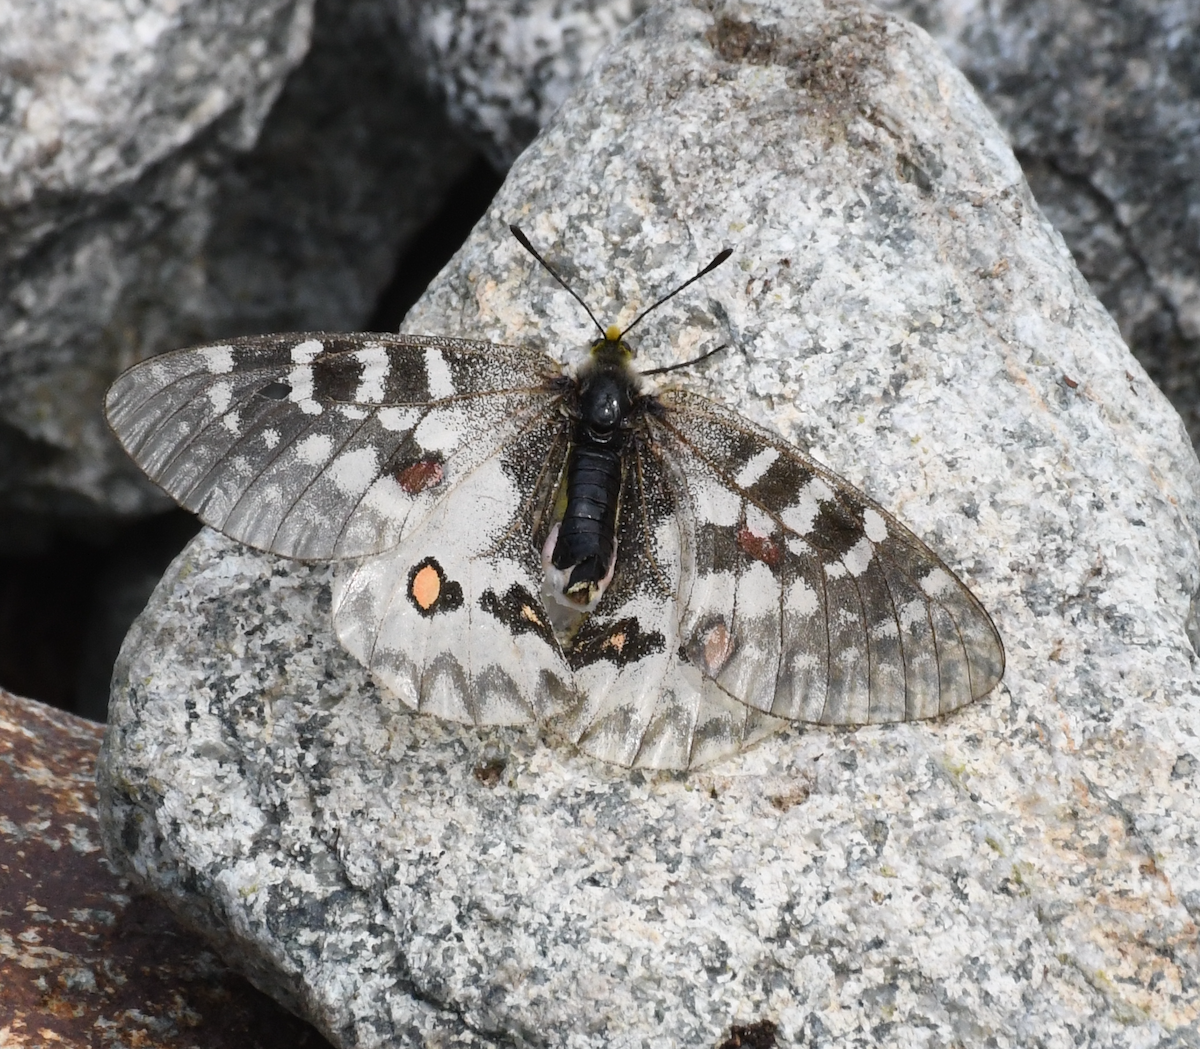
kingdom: Animalia
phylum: Arthropoda
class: Insecta
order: Lepidoptera
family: Papilionidae
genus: Parnassius
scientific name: Parnassius clodius
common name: American apollo
